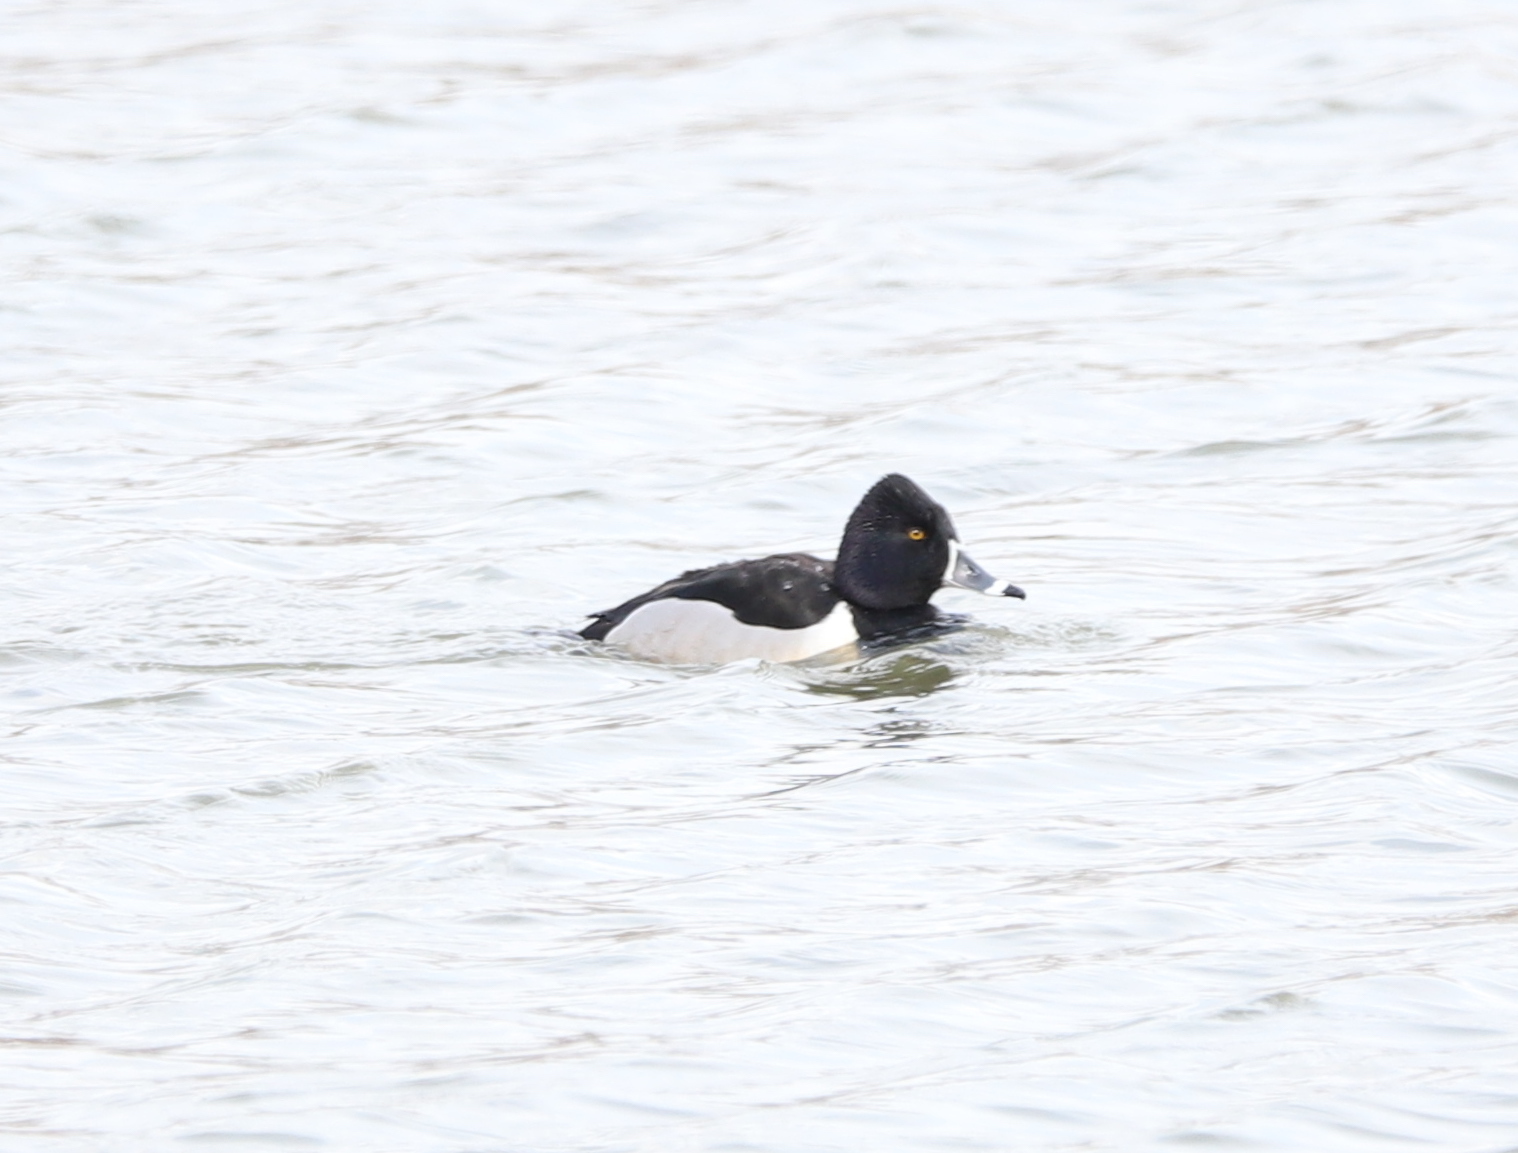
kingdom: Animalia
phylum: Chordata
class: Aves
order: Anseriformes
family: Anatidae
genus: Aythya
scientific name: Aythya collaris
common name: Ring-necked duck
